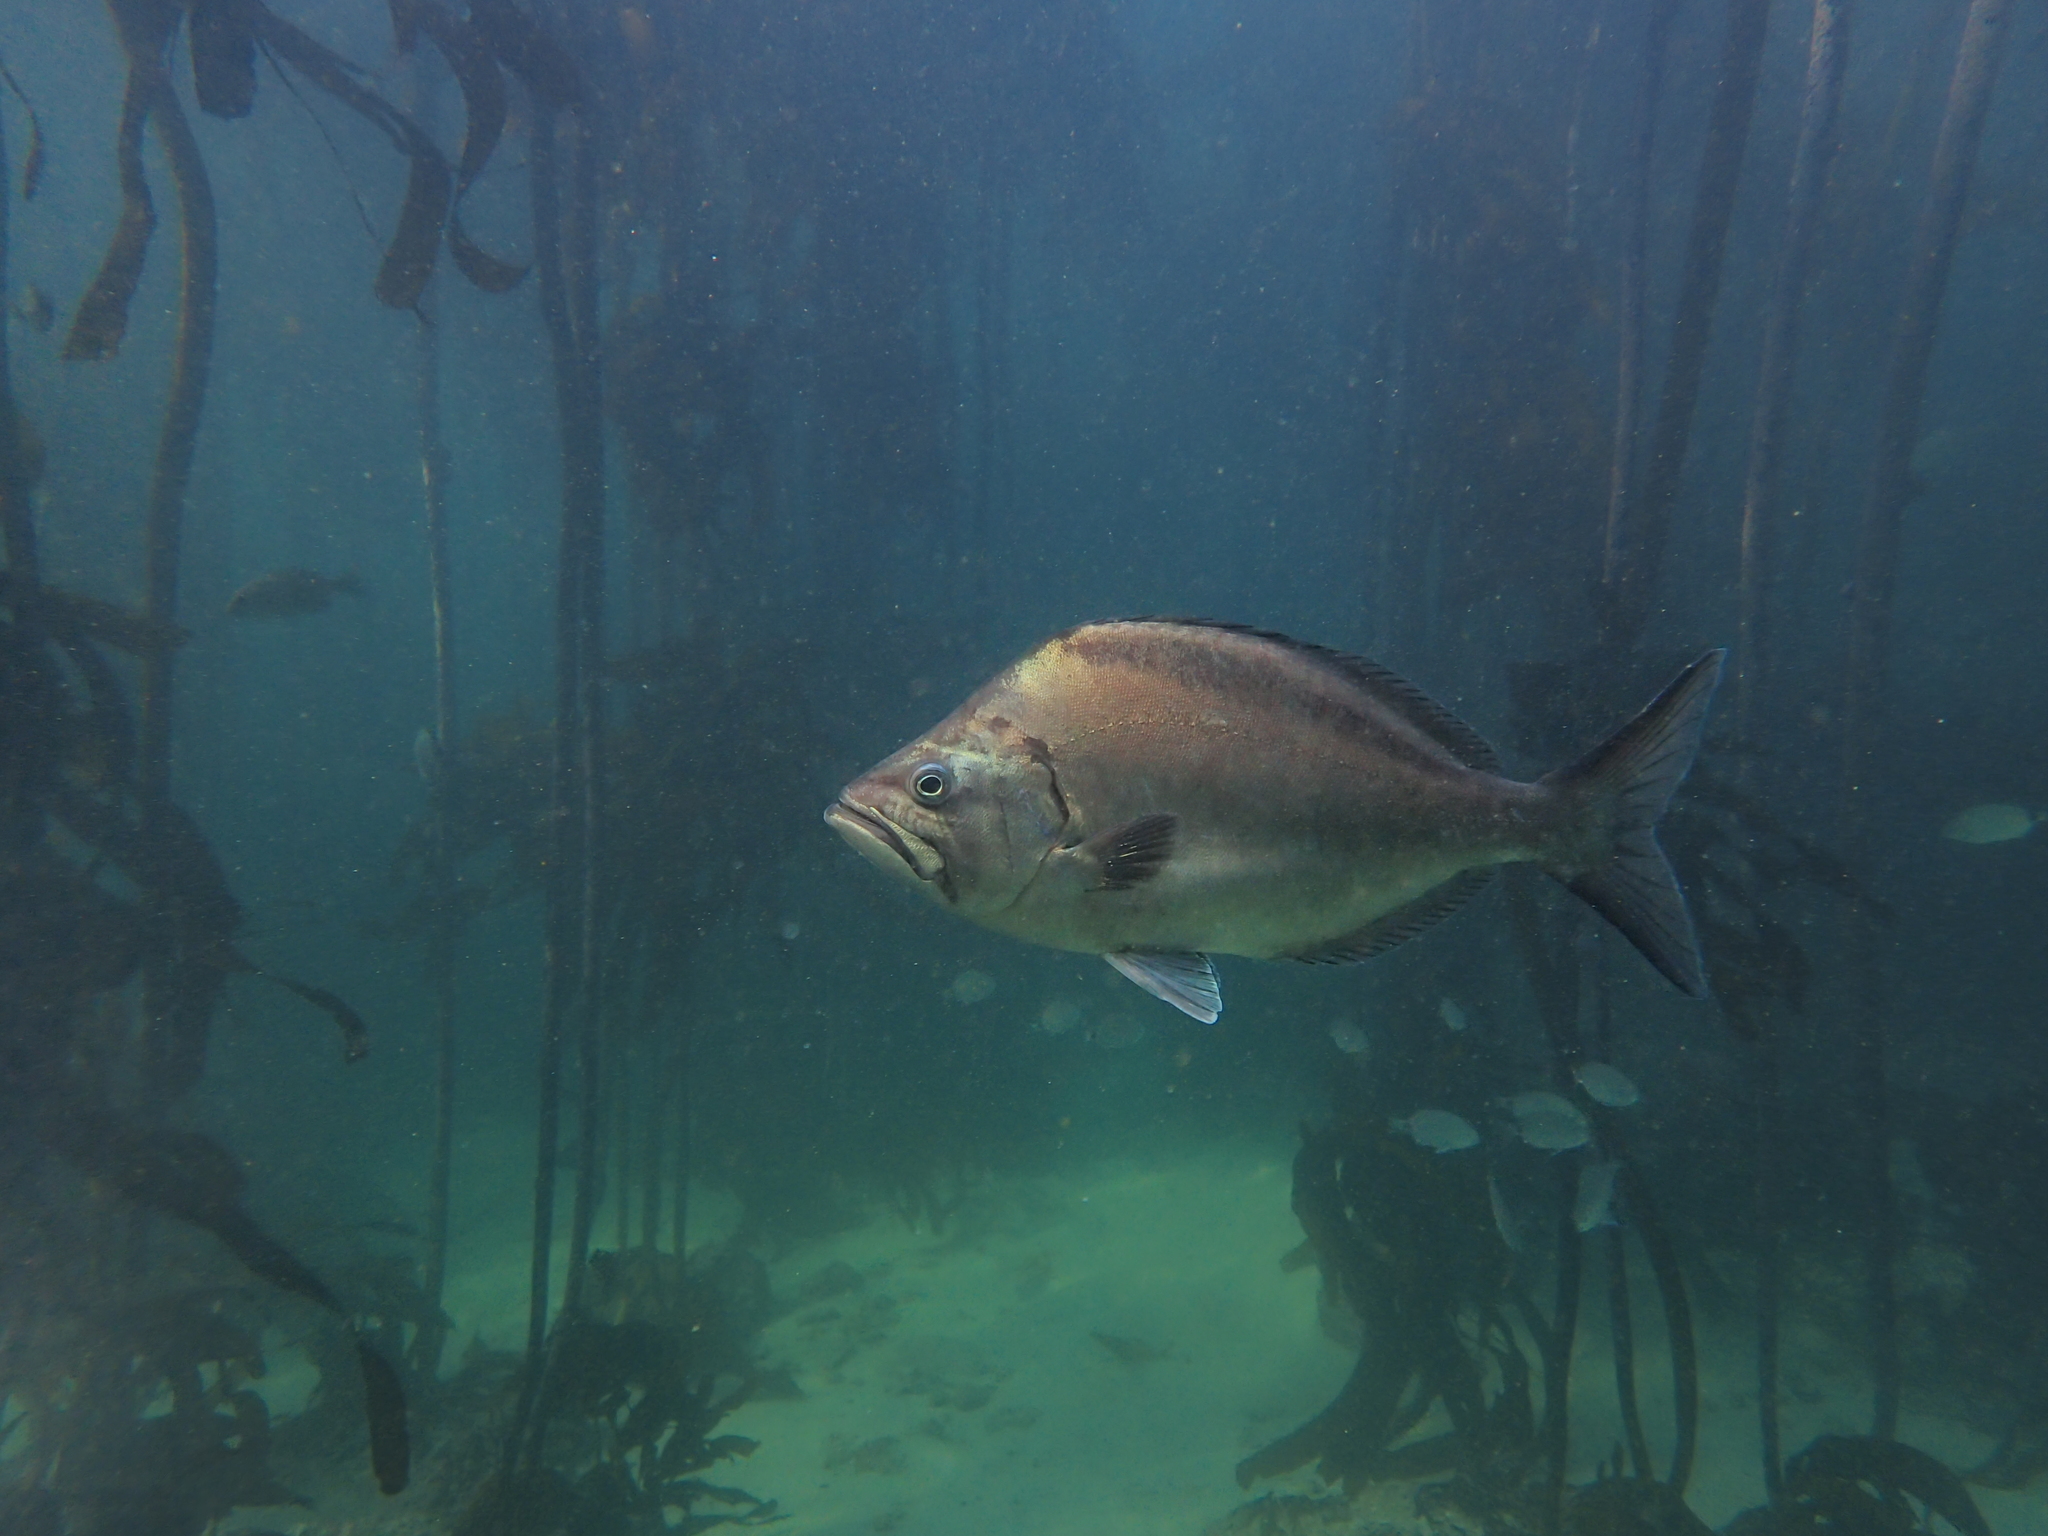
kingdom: Animalia
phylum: Chordata
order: Perciformes
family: Parascorpididae
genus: Parascorpis
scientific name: Parascorpis typus
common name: Jutjaw
